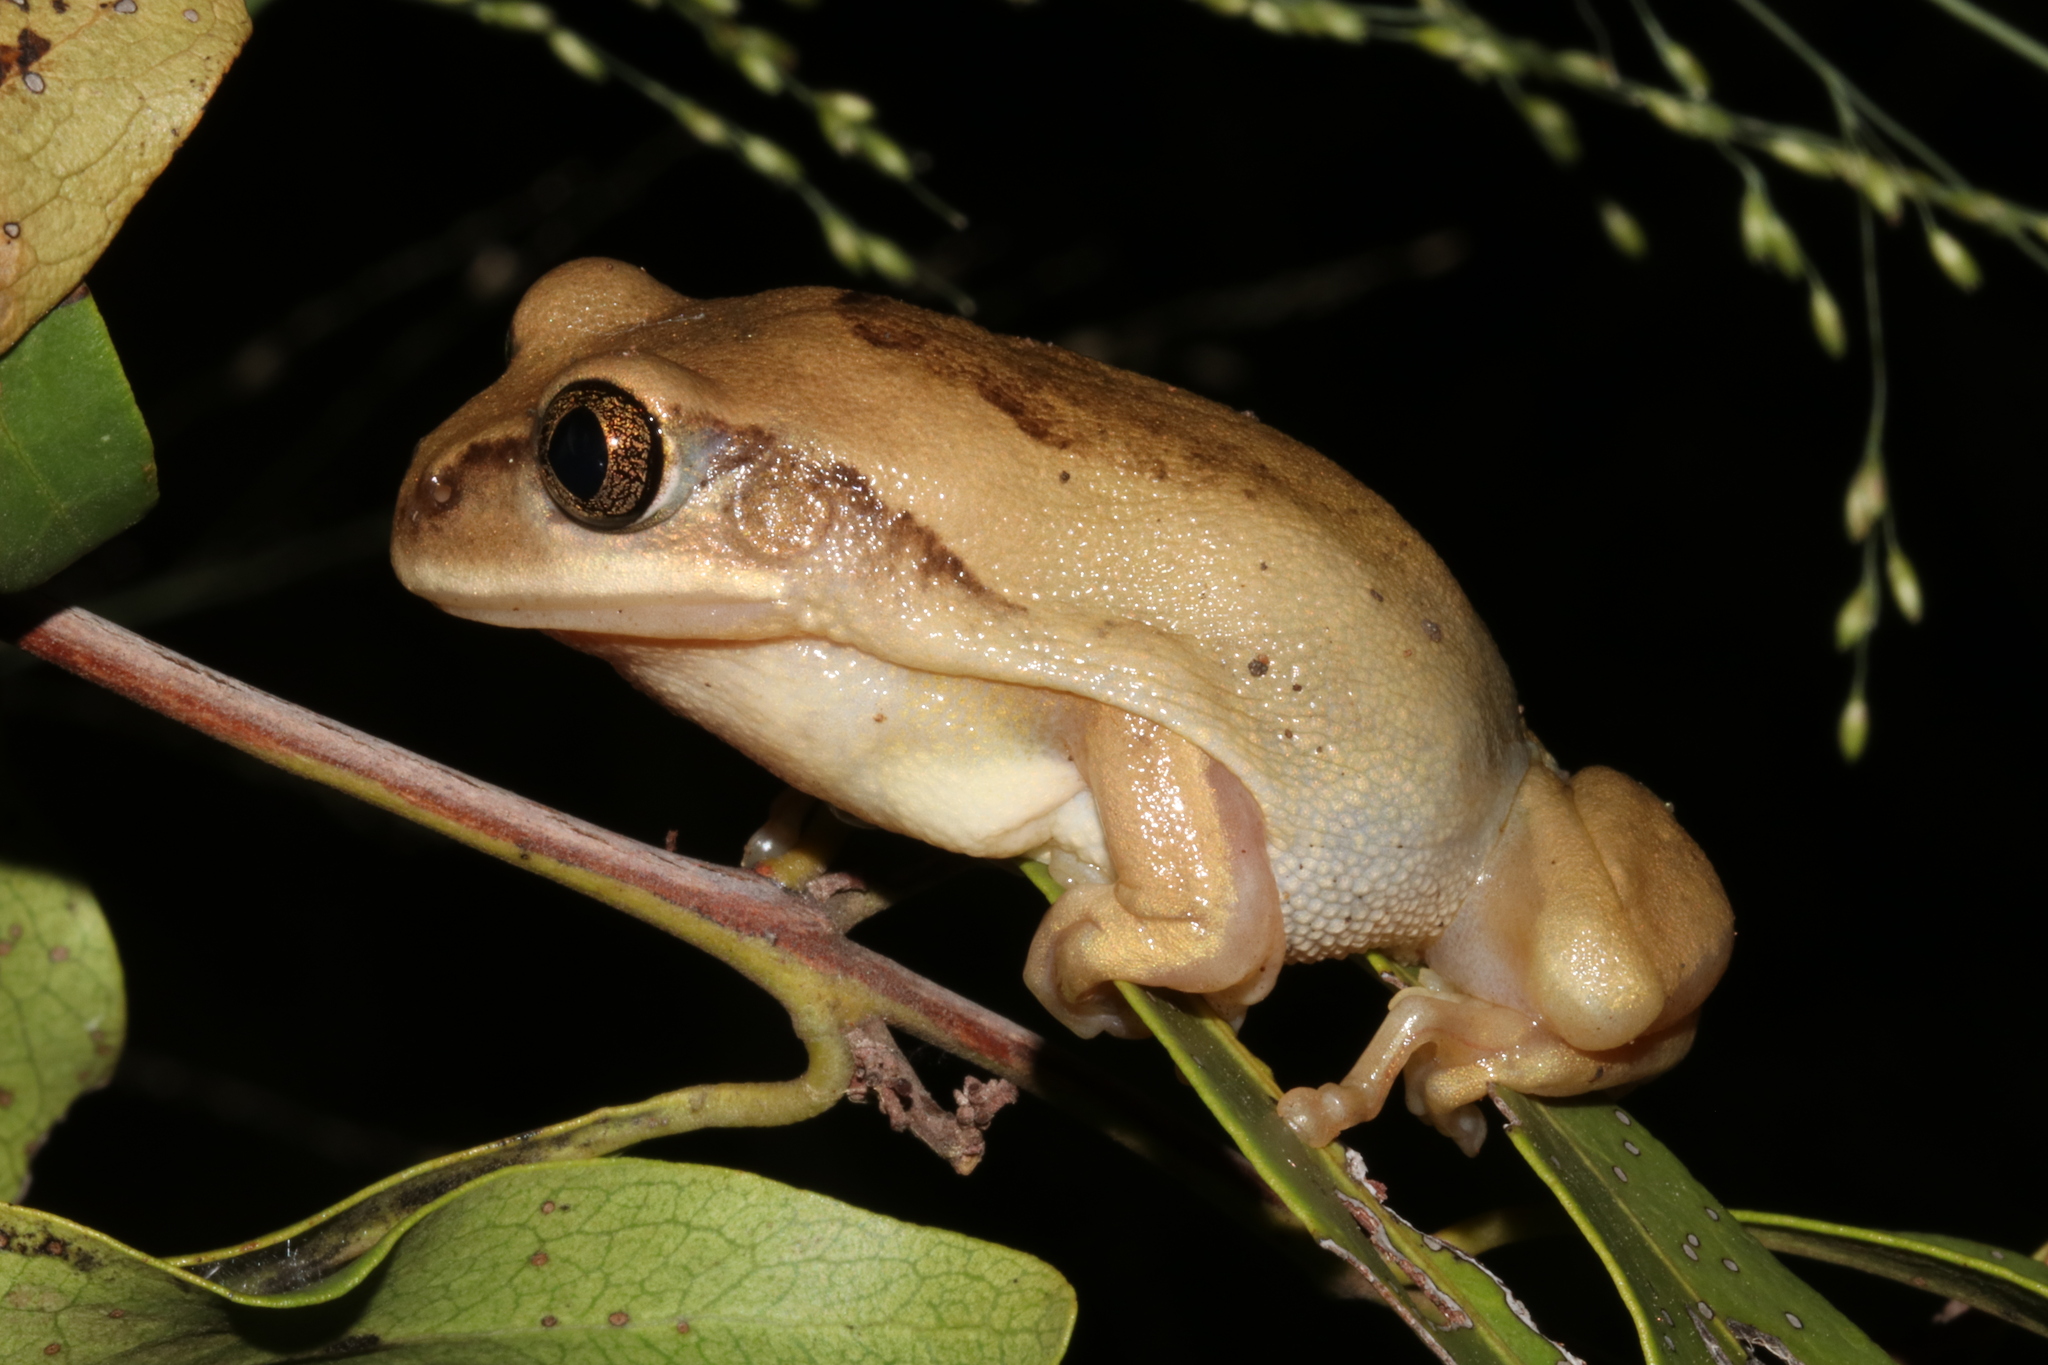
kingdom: Animalia
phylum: Chordata
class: Amphibia
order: Anura
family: Arthroleptidae
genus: Leptopelis
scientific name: Leptopelis mossambicus
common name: Mozambique tree frog
